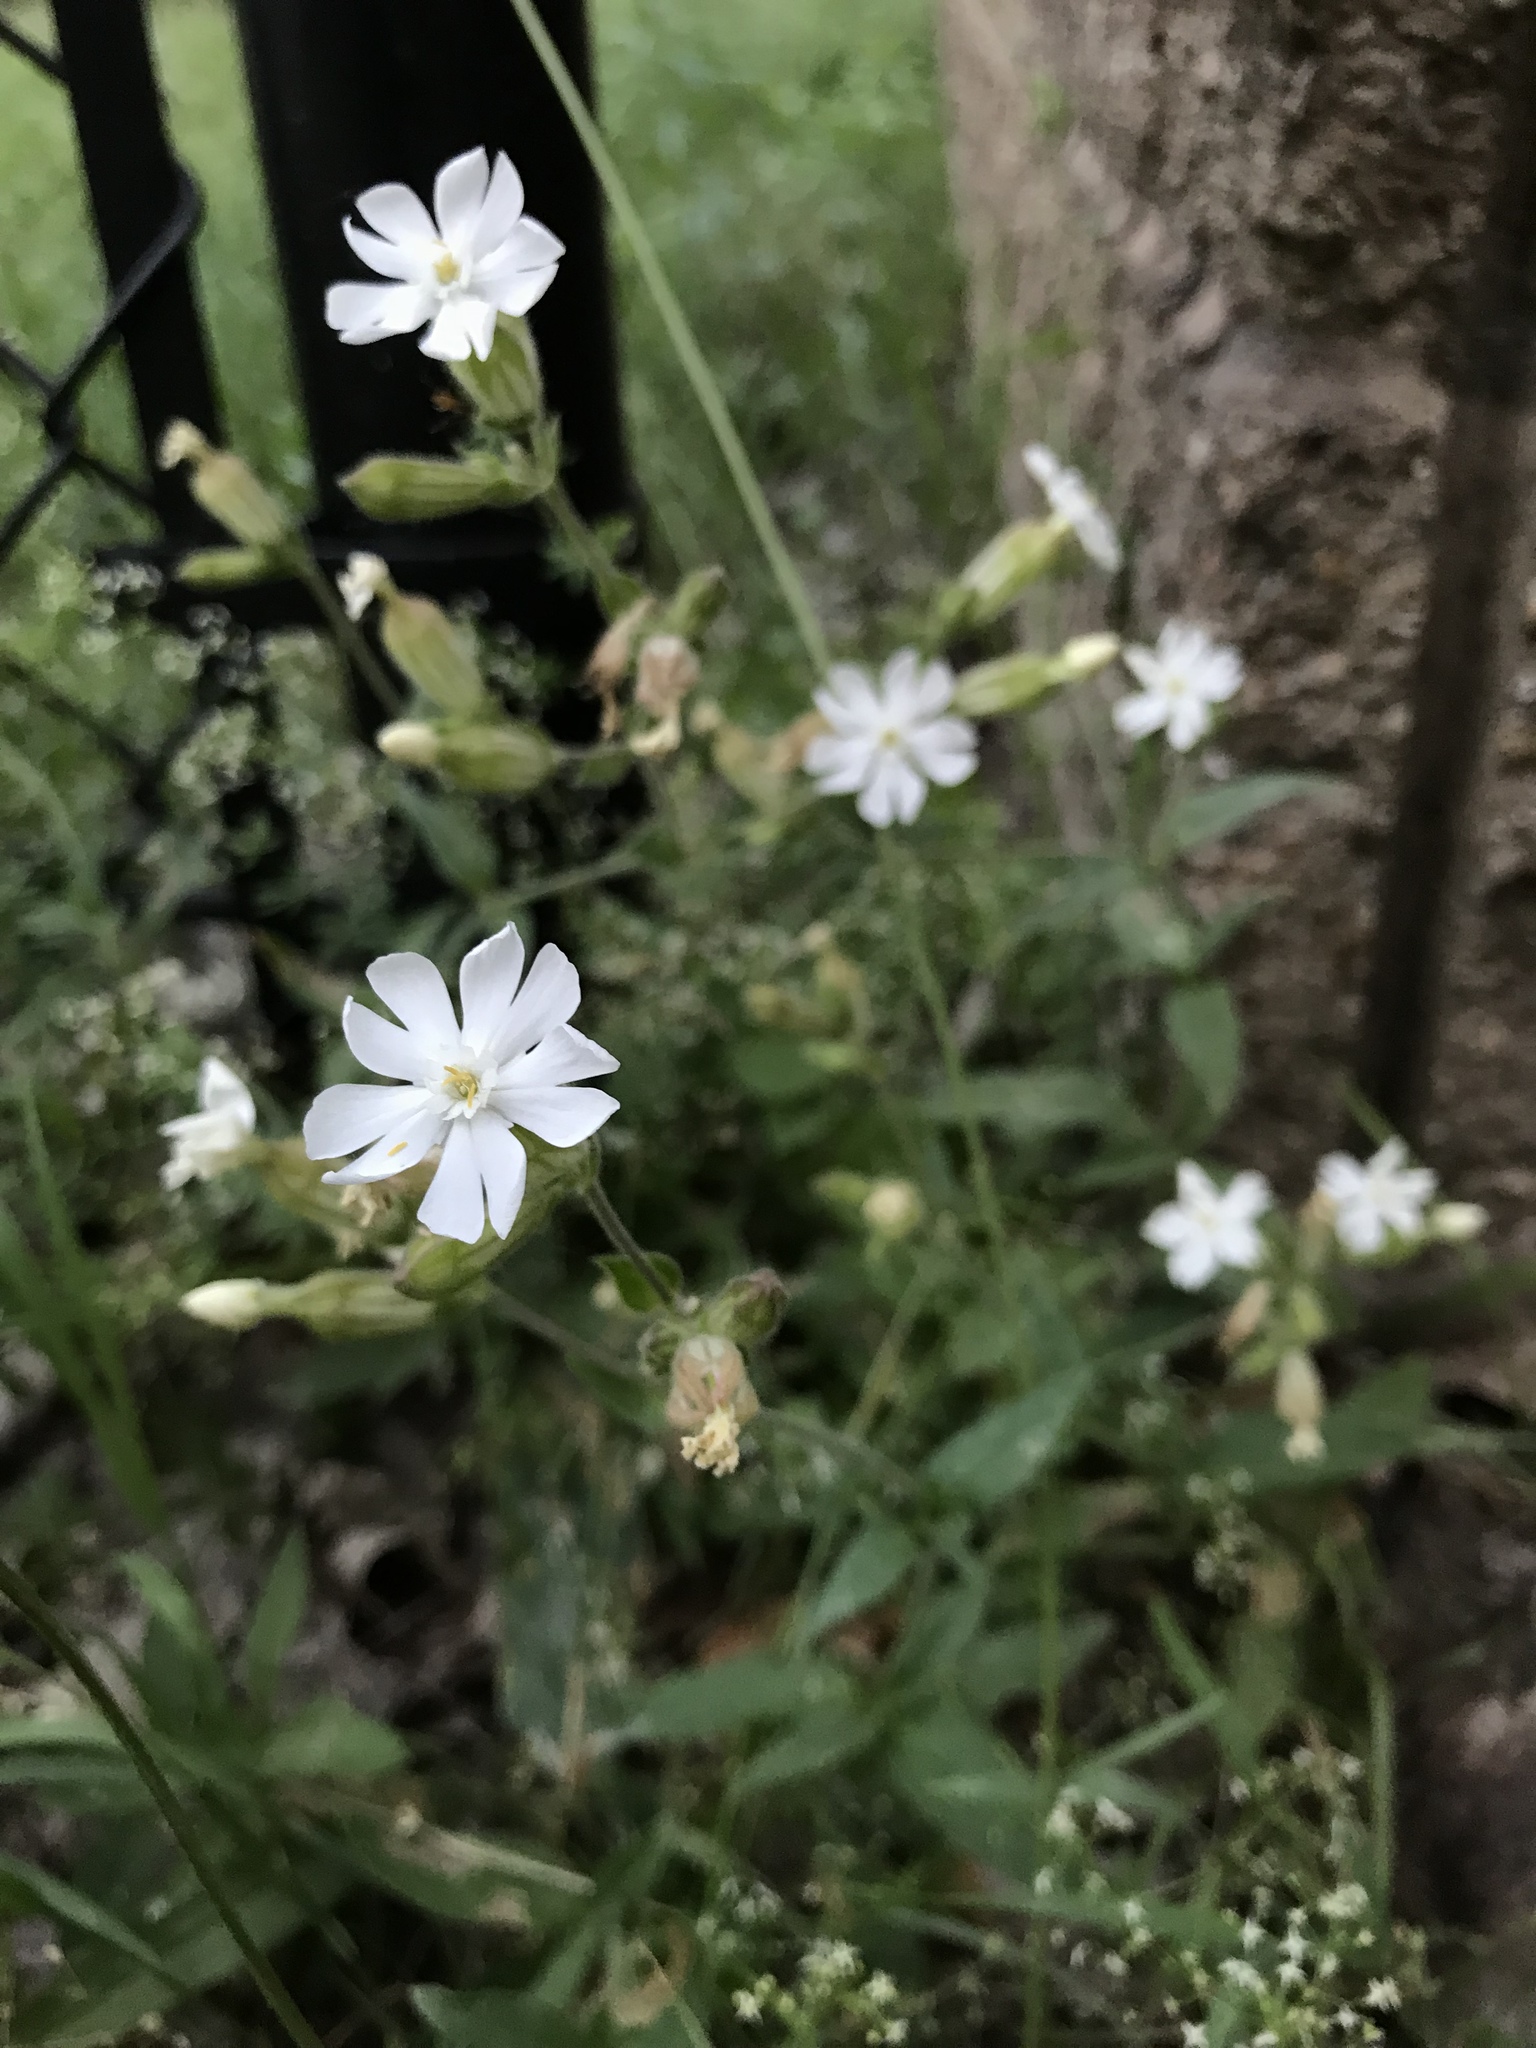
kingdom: Plantae
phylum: Tracheophyta
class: Magnoliopsida
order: Caryophyllales
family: Caryophyllaceae
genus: Silene
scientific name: Silene latifolia
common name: White campion
